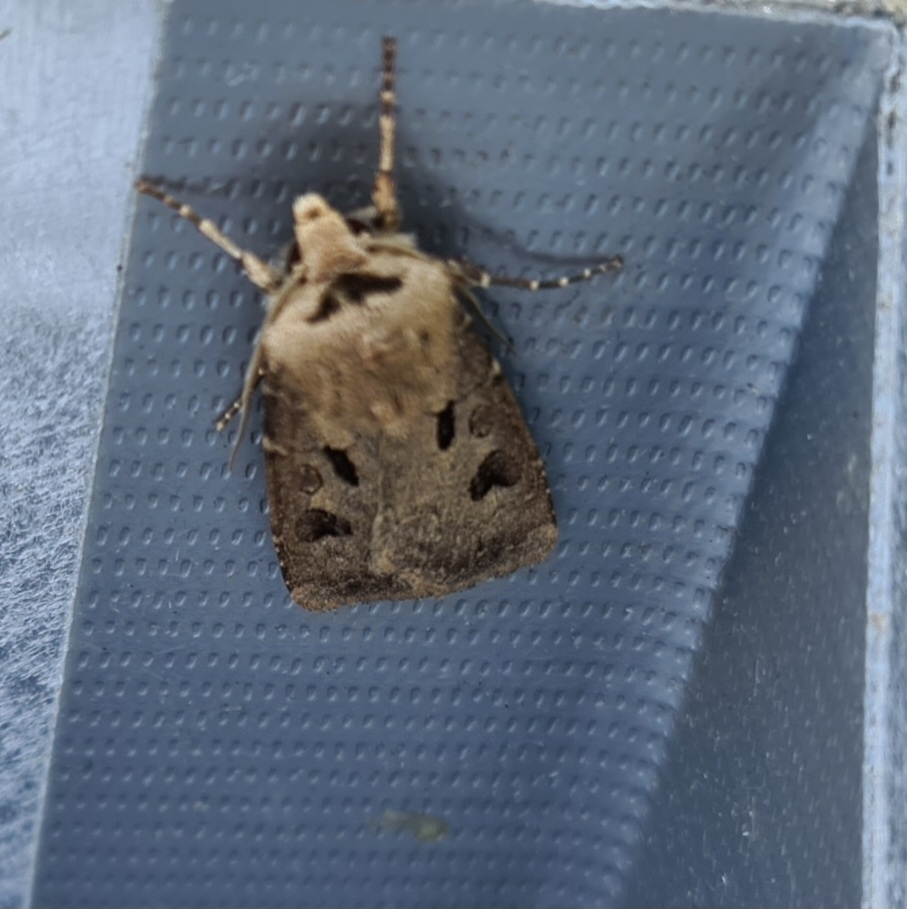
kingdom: Animalia
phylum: Arthropoda
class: Insecta
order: Lepidoptera
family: Noctuidae
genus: Agrotis
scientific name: Agrotis exclamationis
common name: Heart and dart
